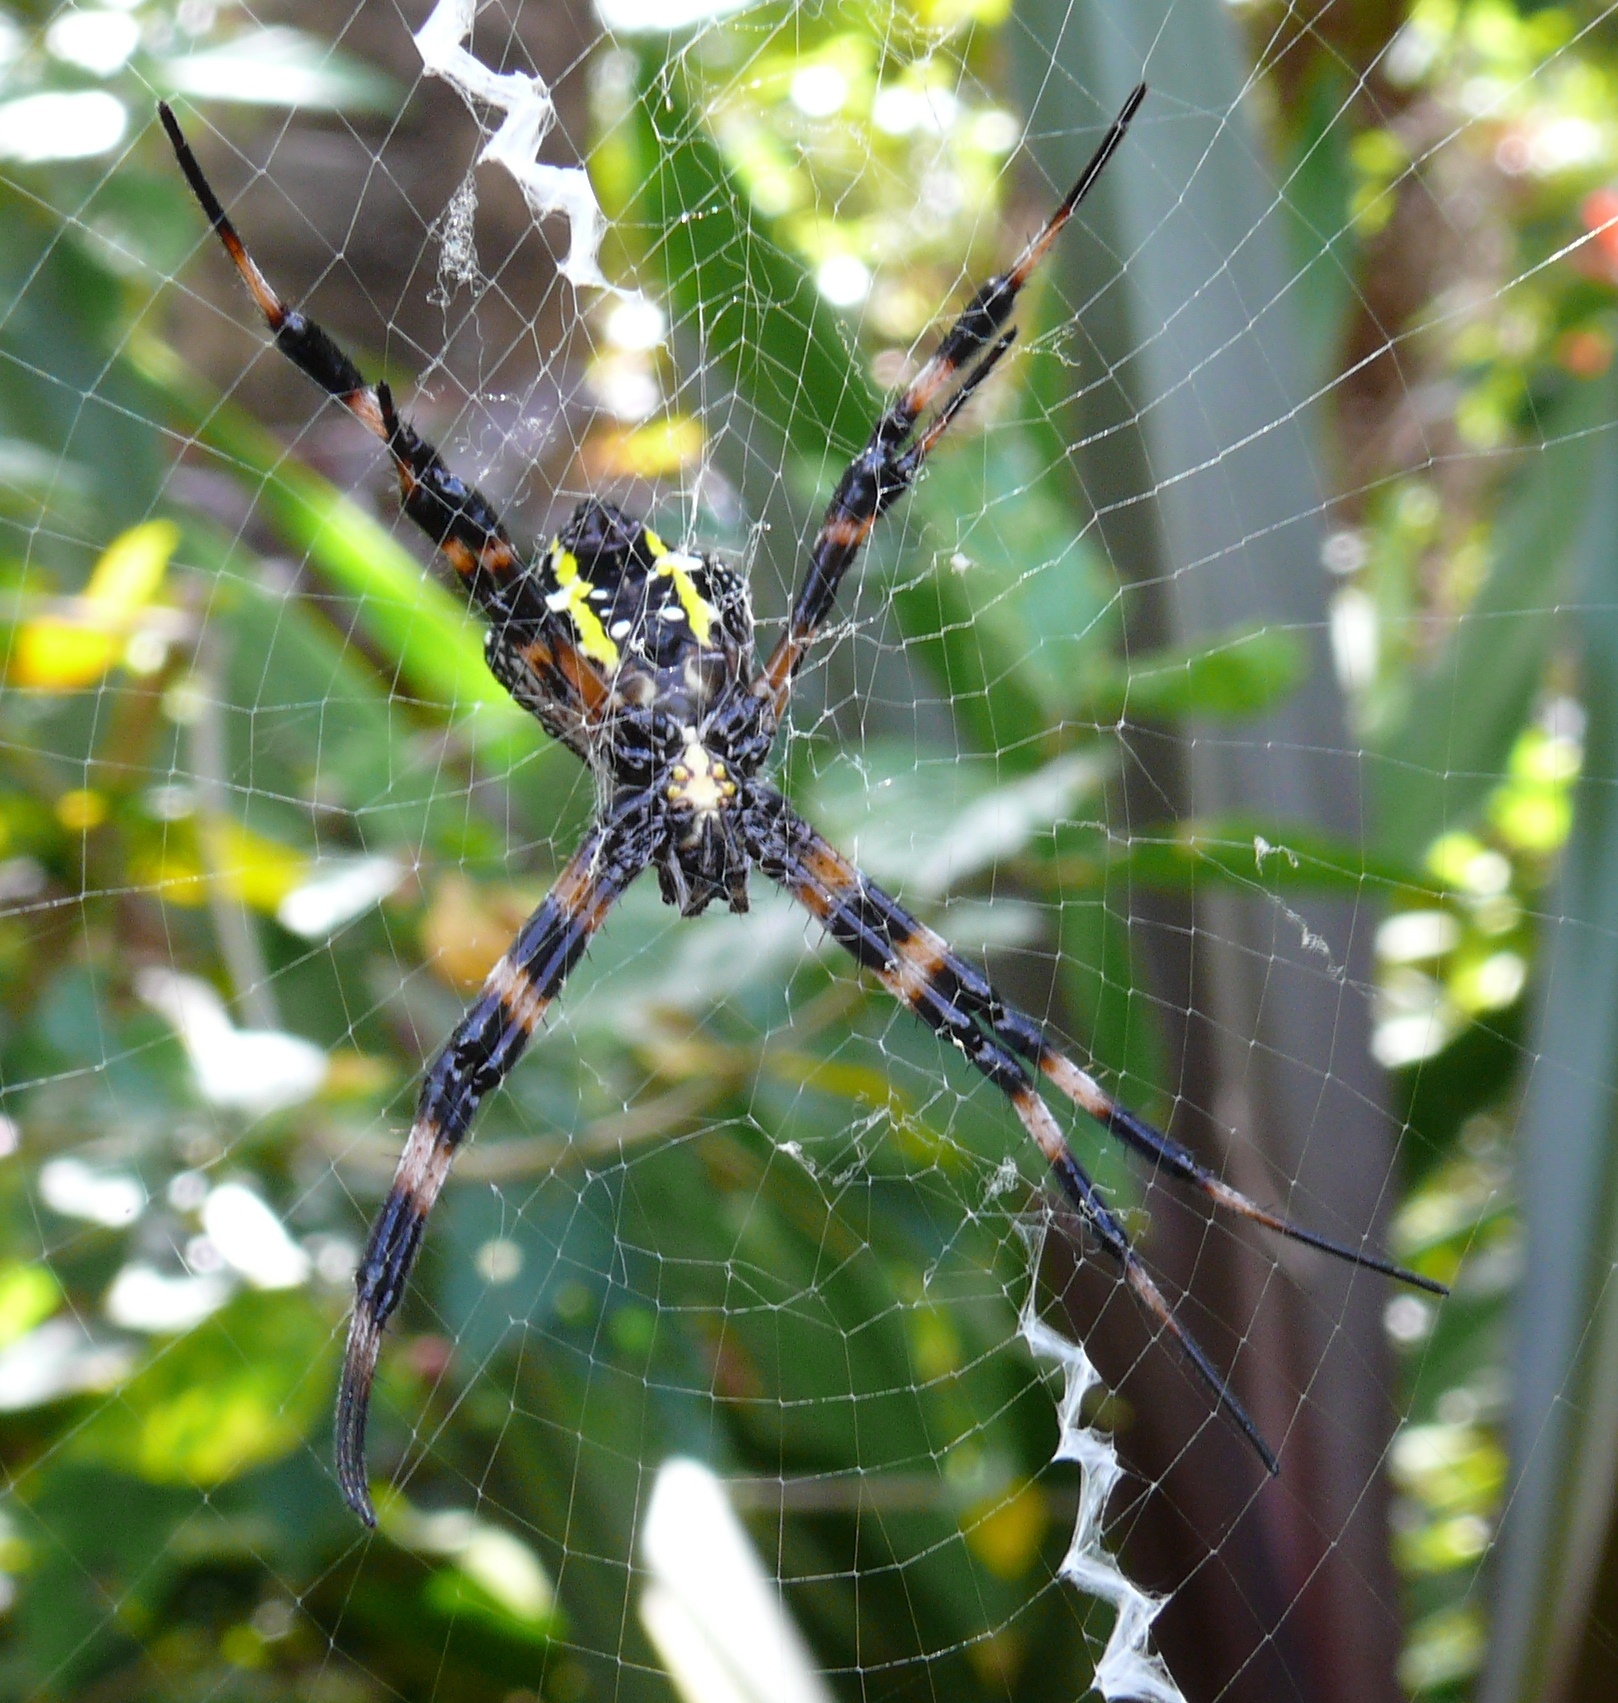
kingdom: Animalia
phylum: Arthropoda
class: Arachnida
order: Araneae
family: Araneidae
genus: Argiope
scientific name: Argiope appensa
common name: Garden spider
